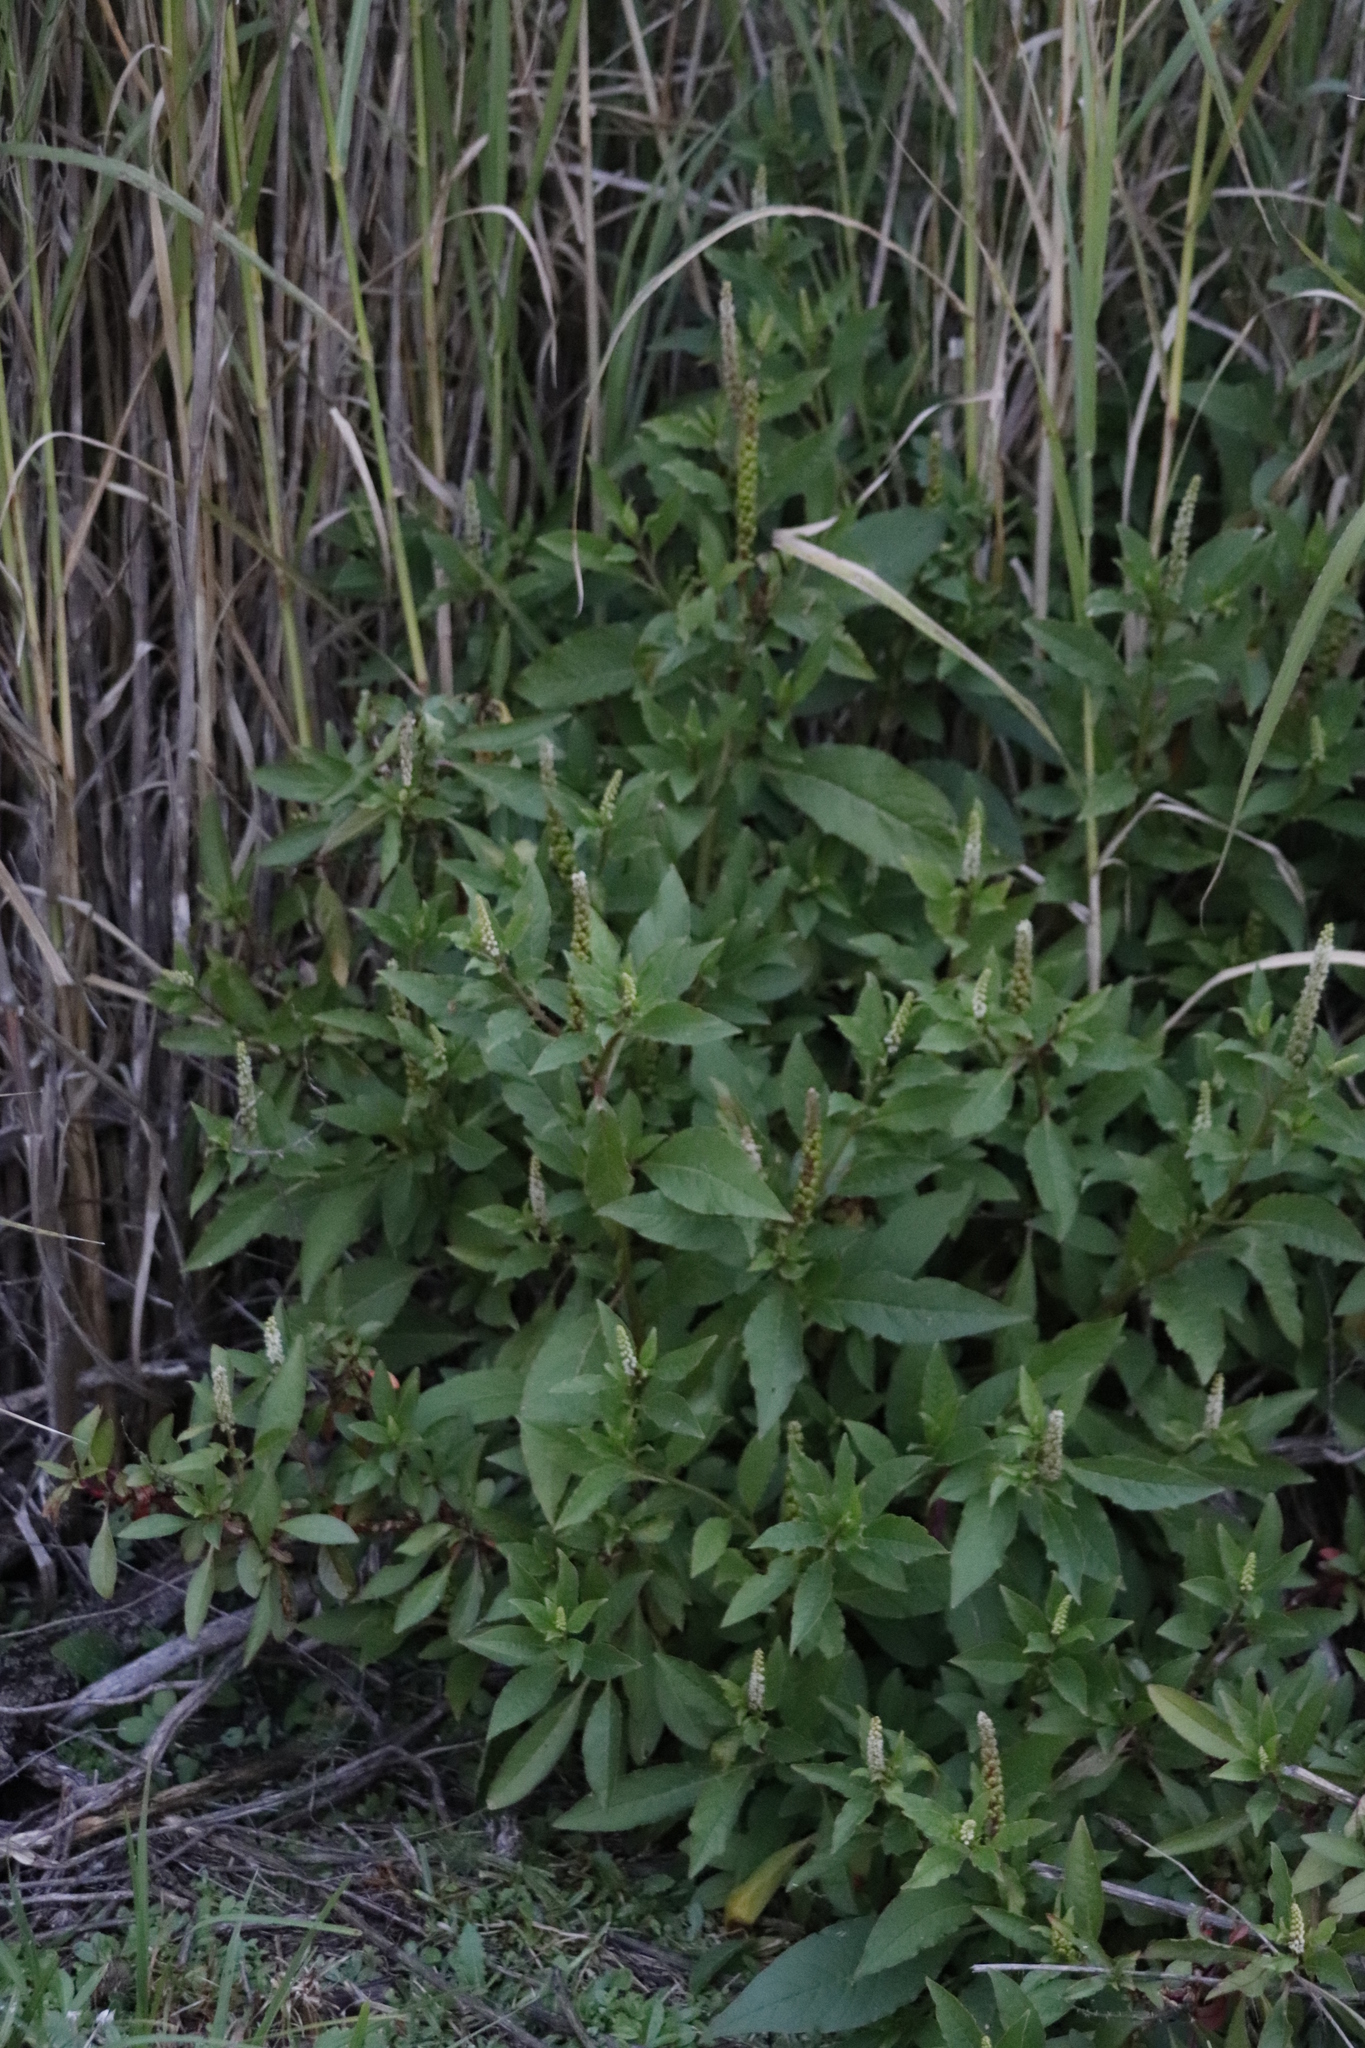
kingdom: Plantae
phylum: Tracheophyta
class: Magnoliopsida
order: Caryophyllales
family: Phytolaccaceae
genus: Phytolacca
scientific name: Phytolacca icosandra
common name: Button pokeweed
